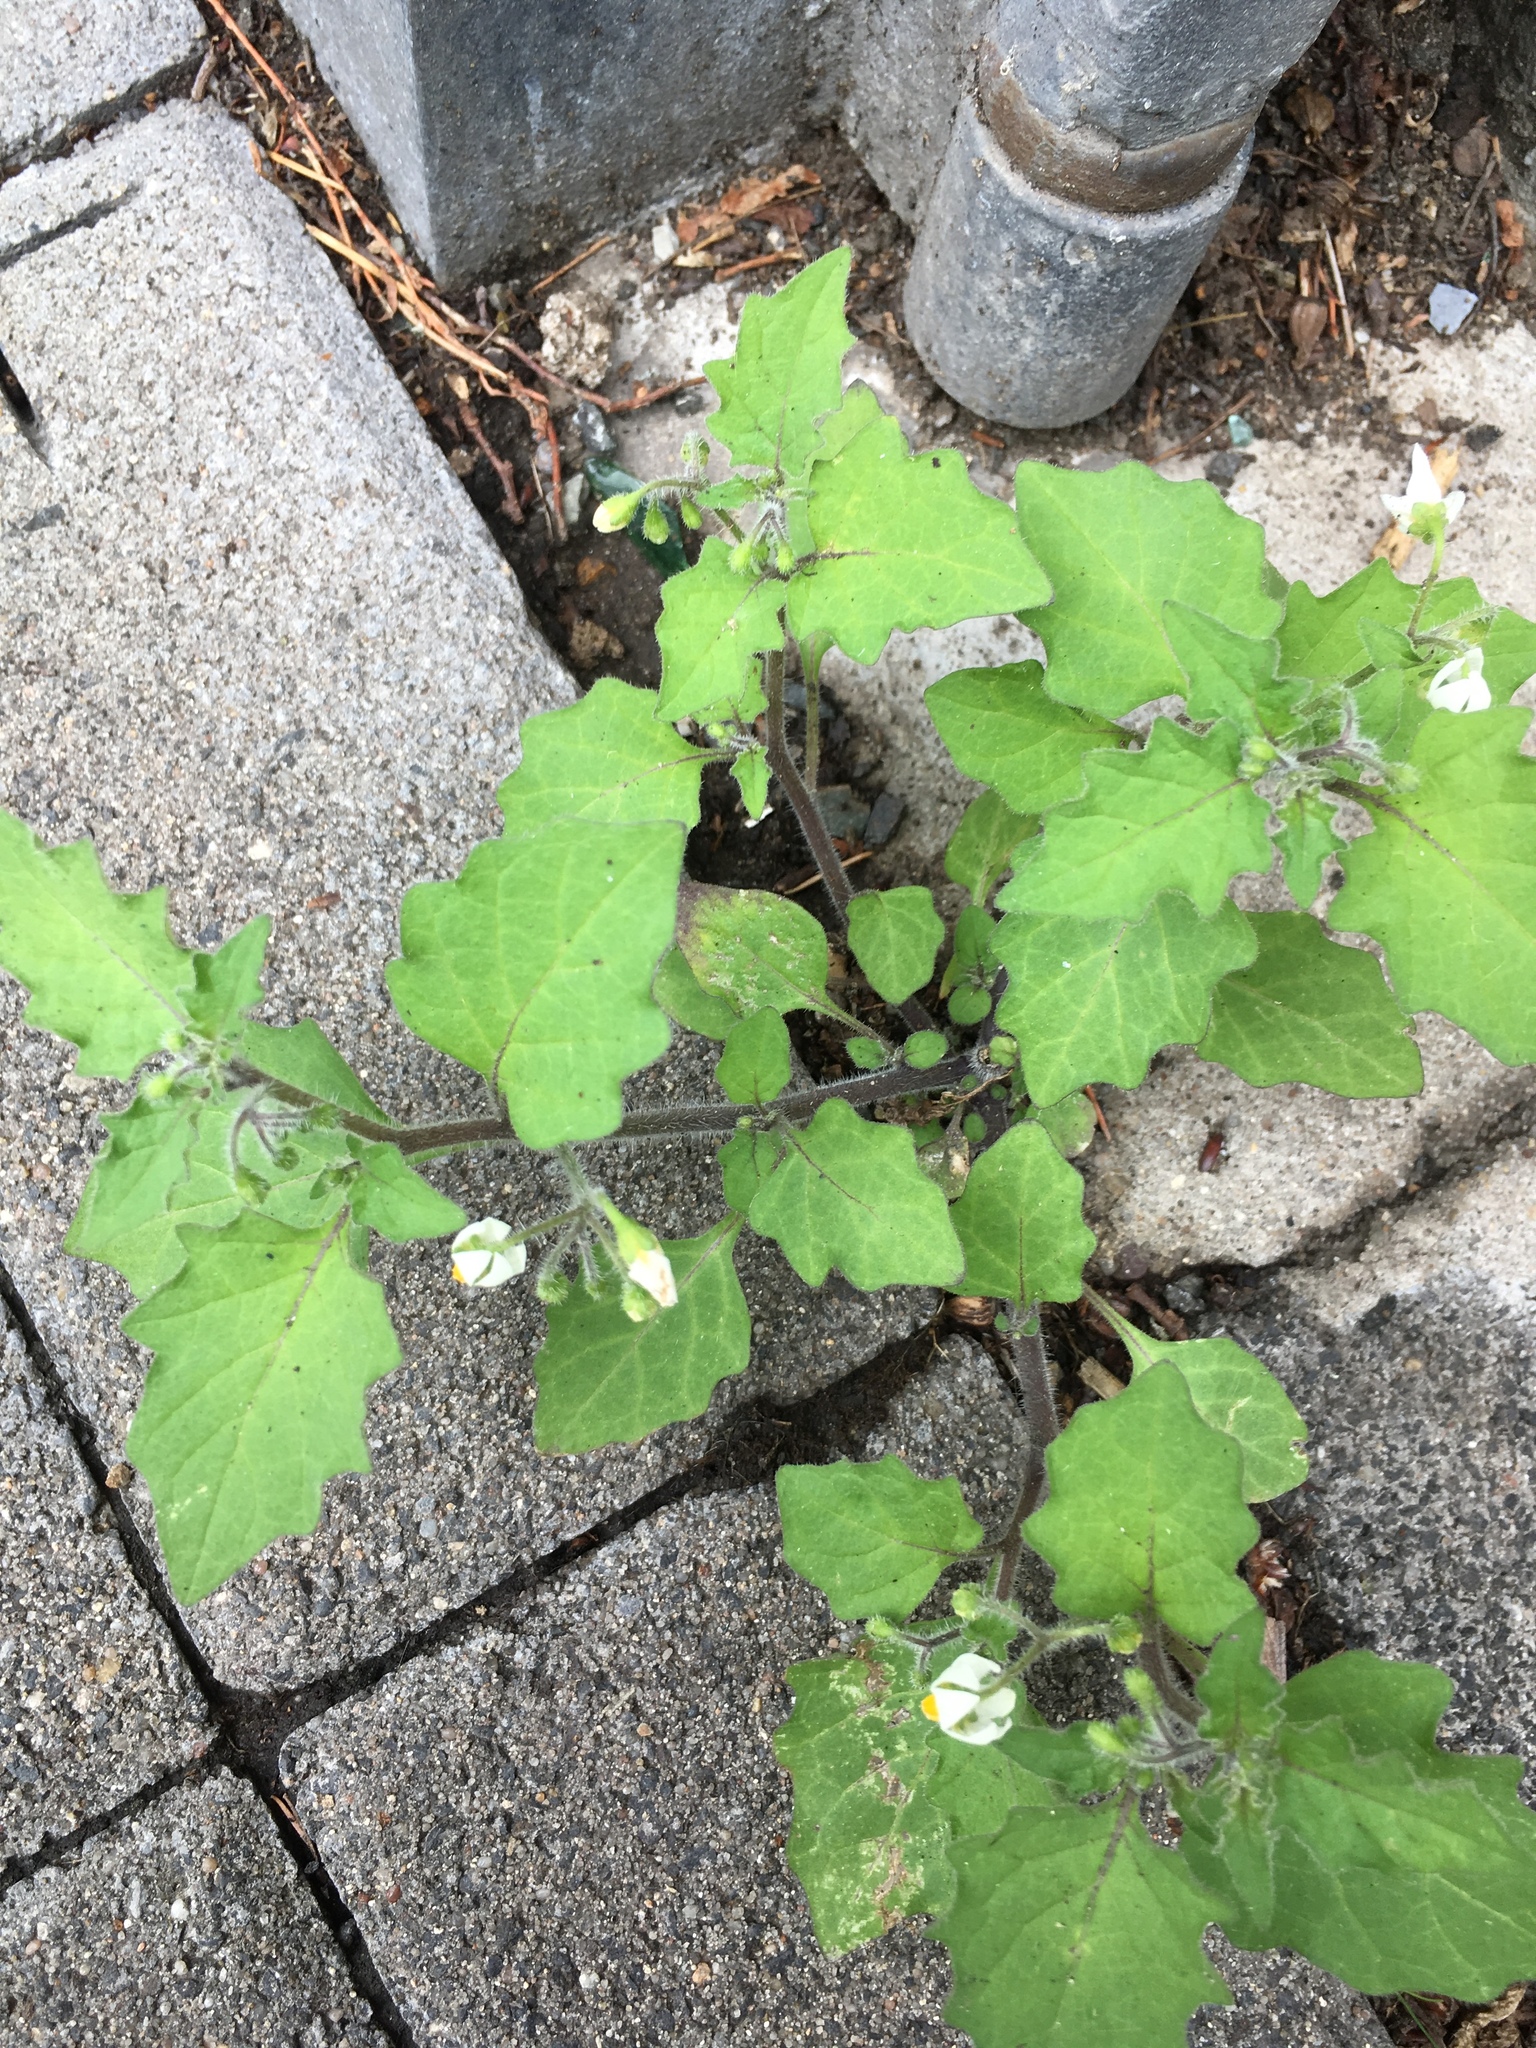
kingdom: Plantae
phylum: Tracheophyta
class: Magnoliopsida
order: Solanales
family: Solanaceae
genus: Solanum
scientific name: Solanum nigrum
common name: Black nightshade
